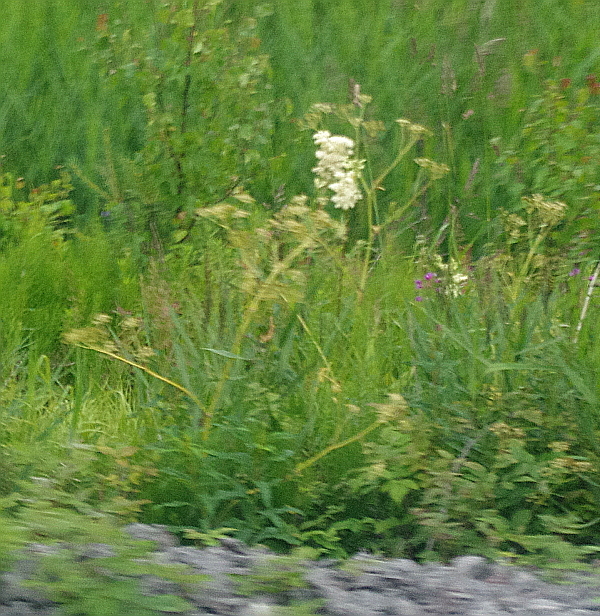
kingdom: Plantae
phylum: Tracheophyta
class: Magnoliopsida
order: Rosales
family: Rosaceae
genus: Filipendula
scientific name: Filipendula ulmaria
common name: Meadowsweet
